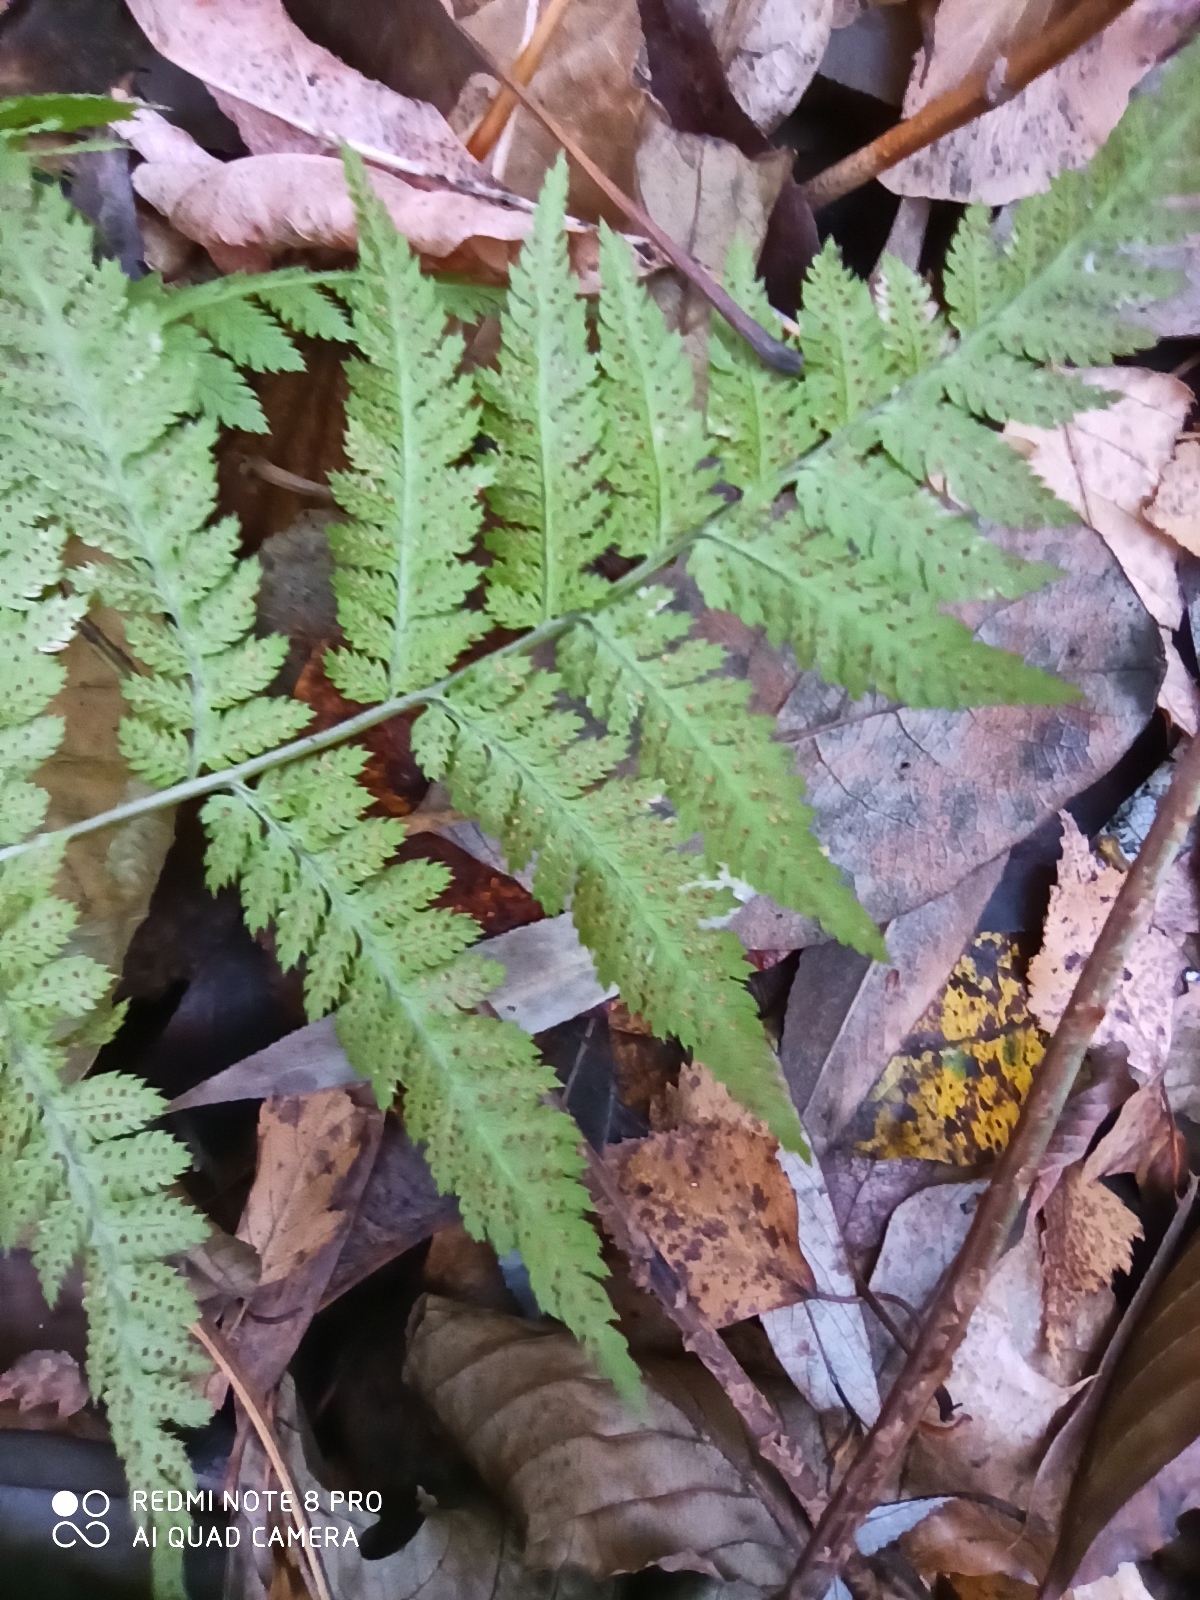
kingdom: Plantae
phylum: Tracheophyta
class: Polypodiopsida
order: Polypodiales
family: Dryopteridaceae
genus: Dryopteris
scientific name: Dryopteris carthusiana
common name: Narrow buckler-fern
